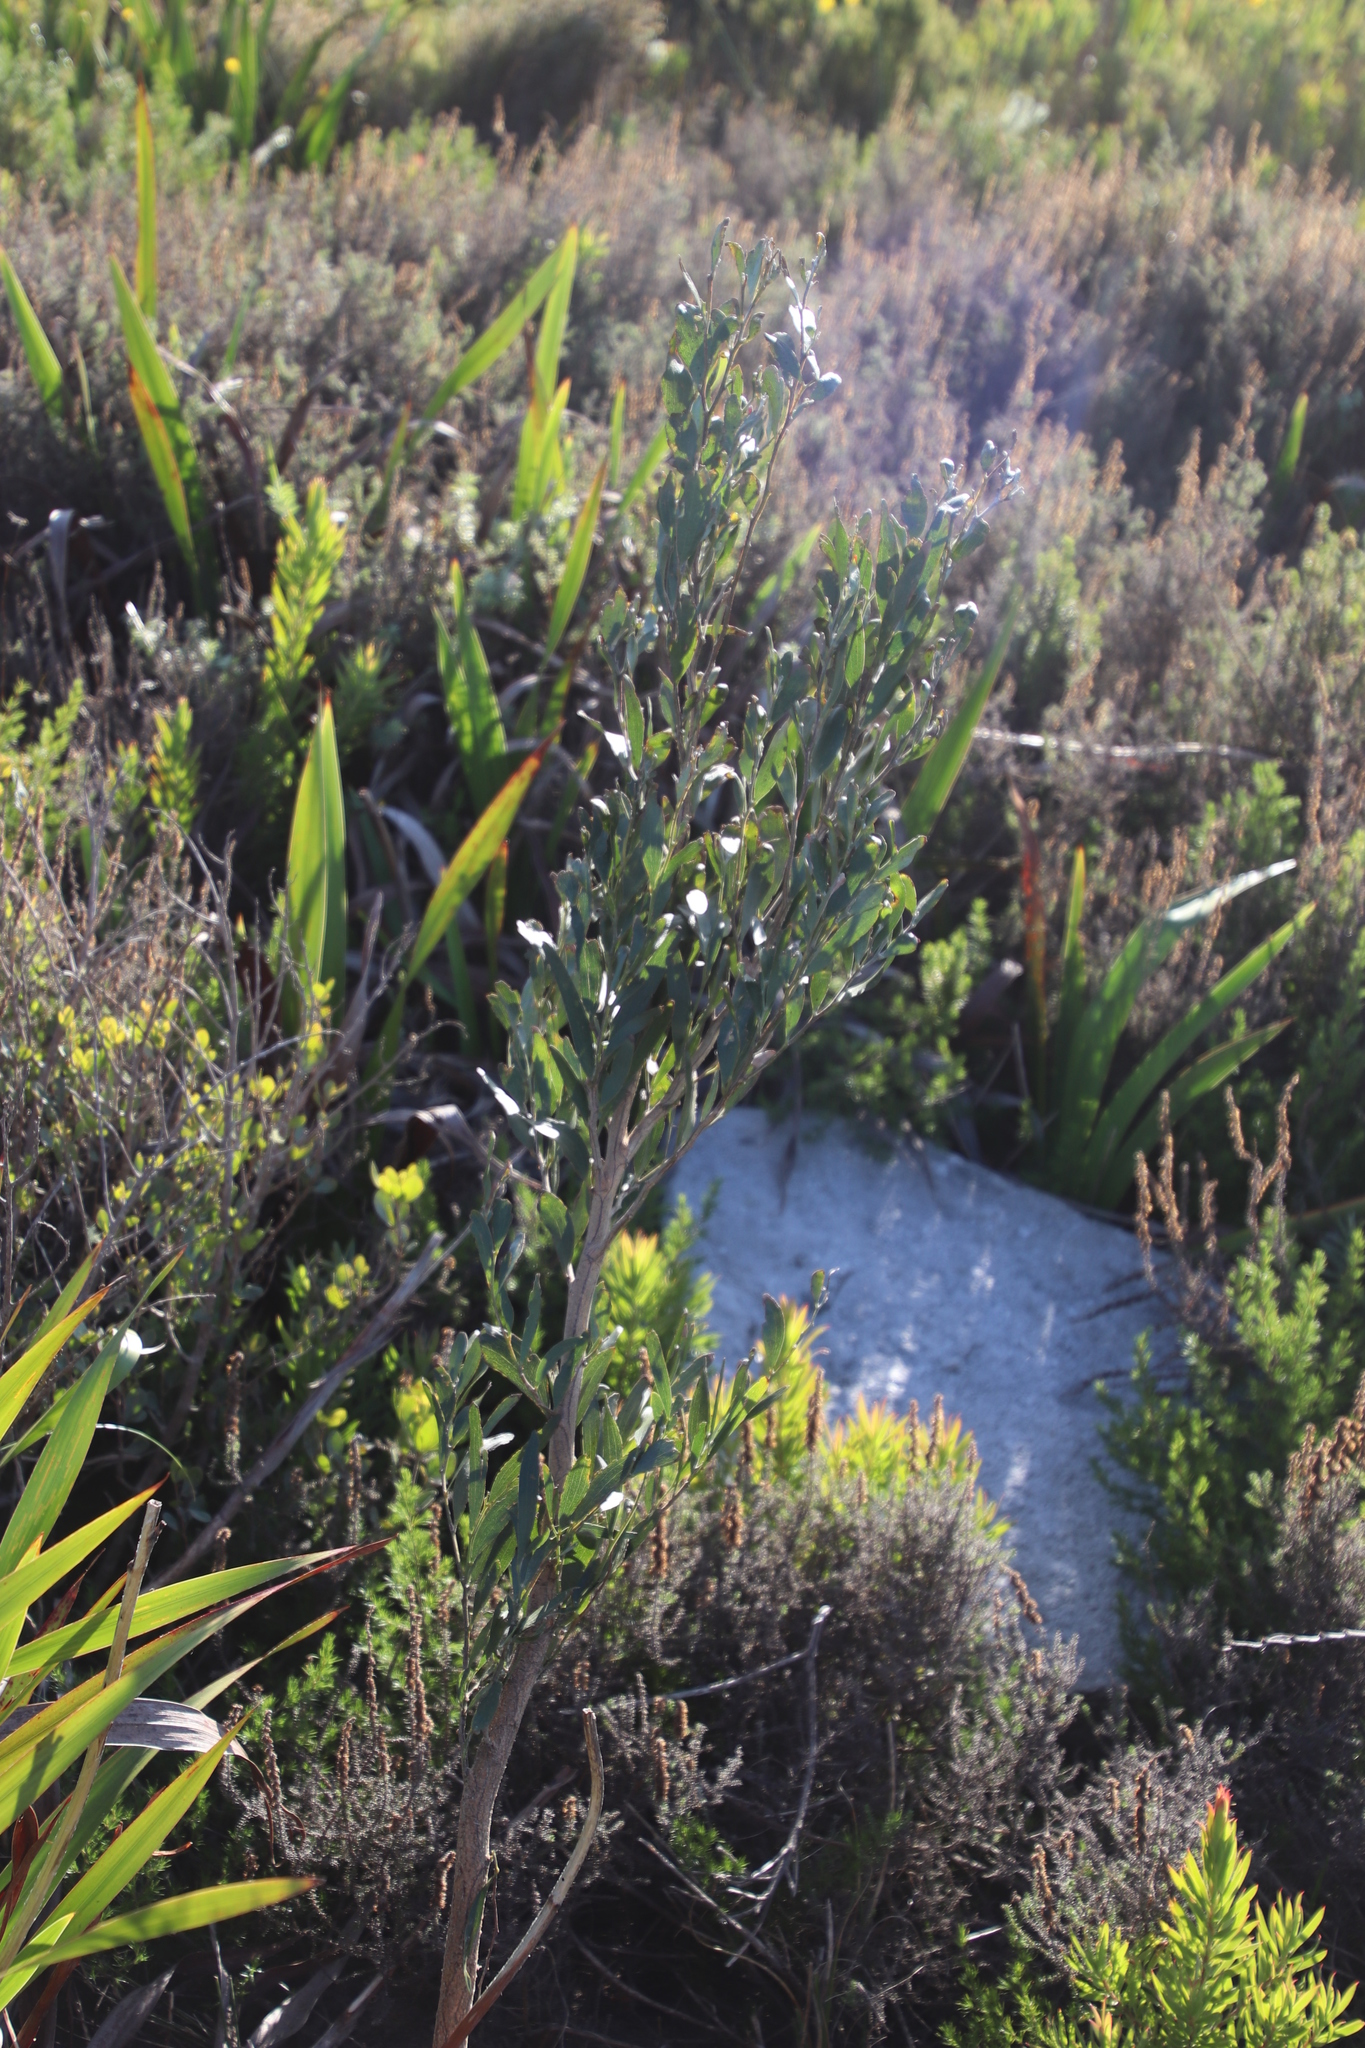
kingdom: Plantae
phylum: Tracheophyta
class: Magnoliopsida
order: Fabales
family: Fabaceae
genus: Acacia
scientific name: Acacia melanoxylon
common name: Blackwood
